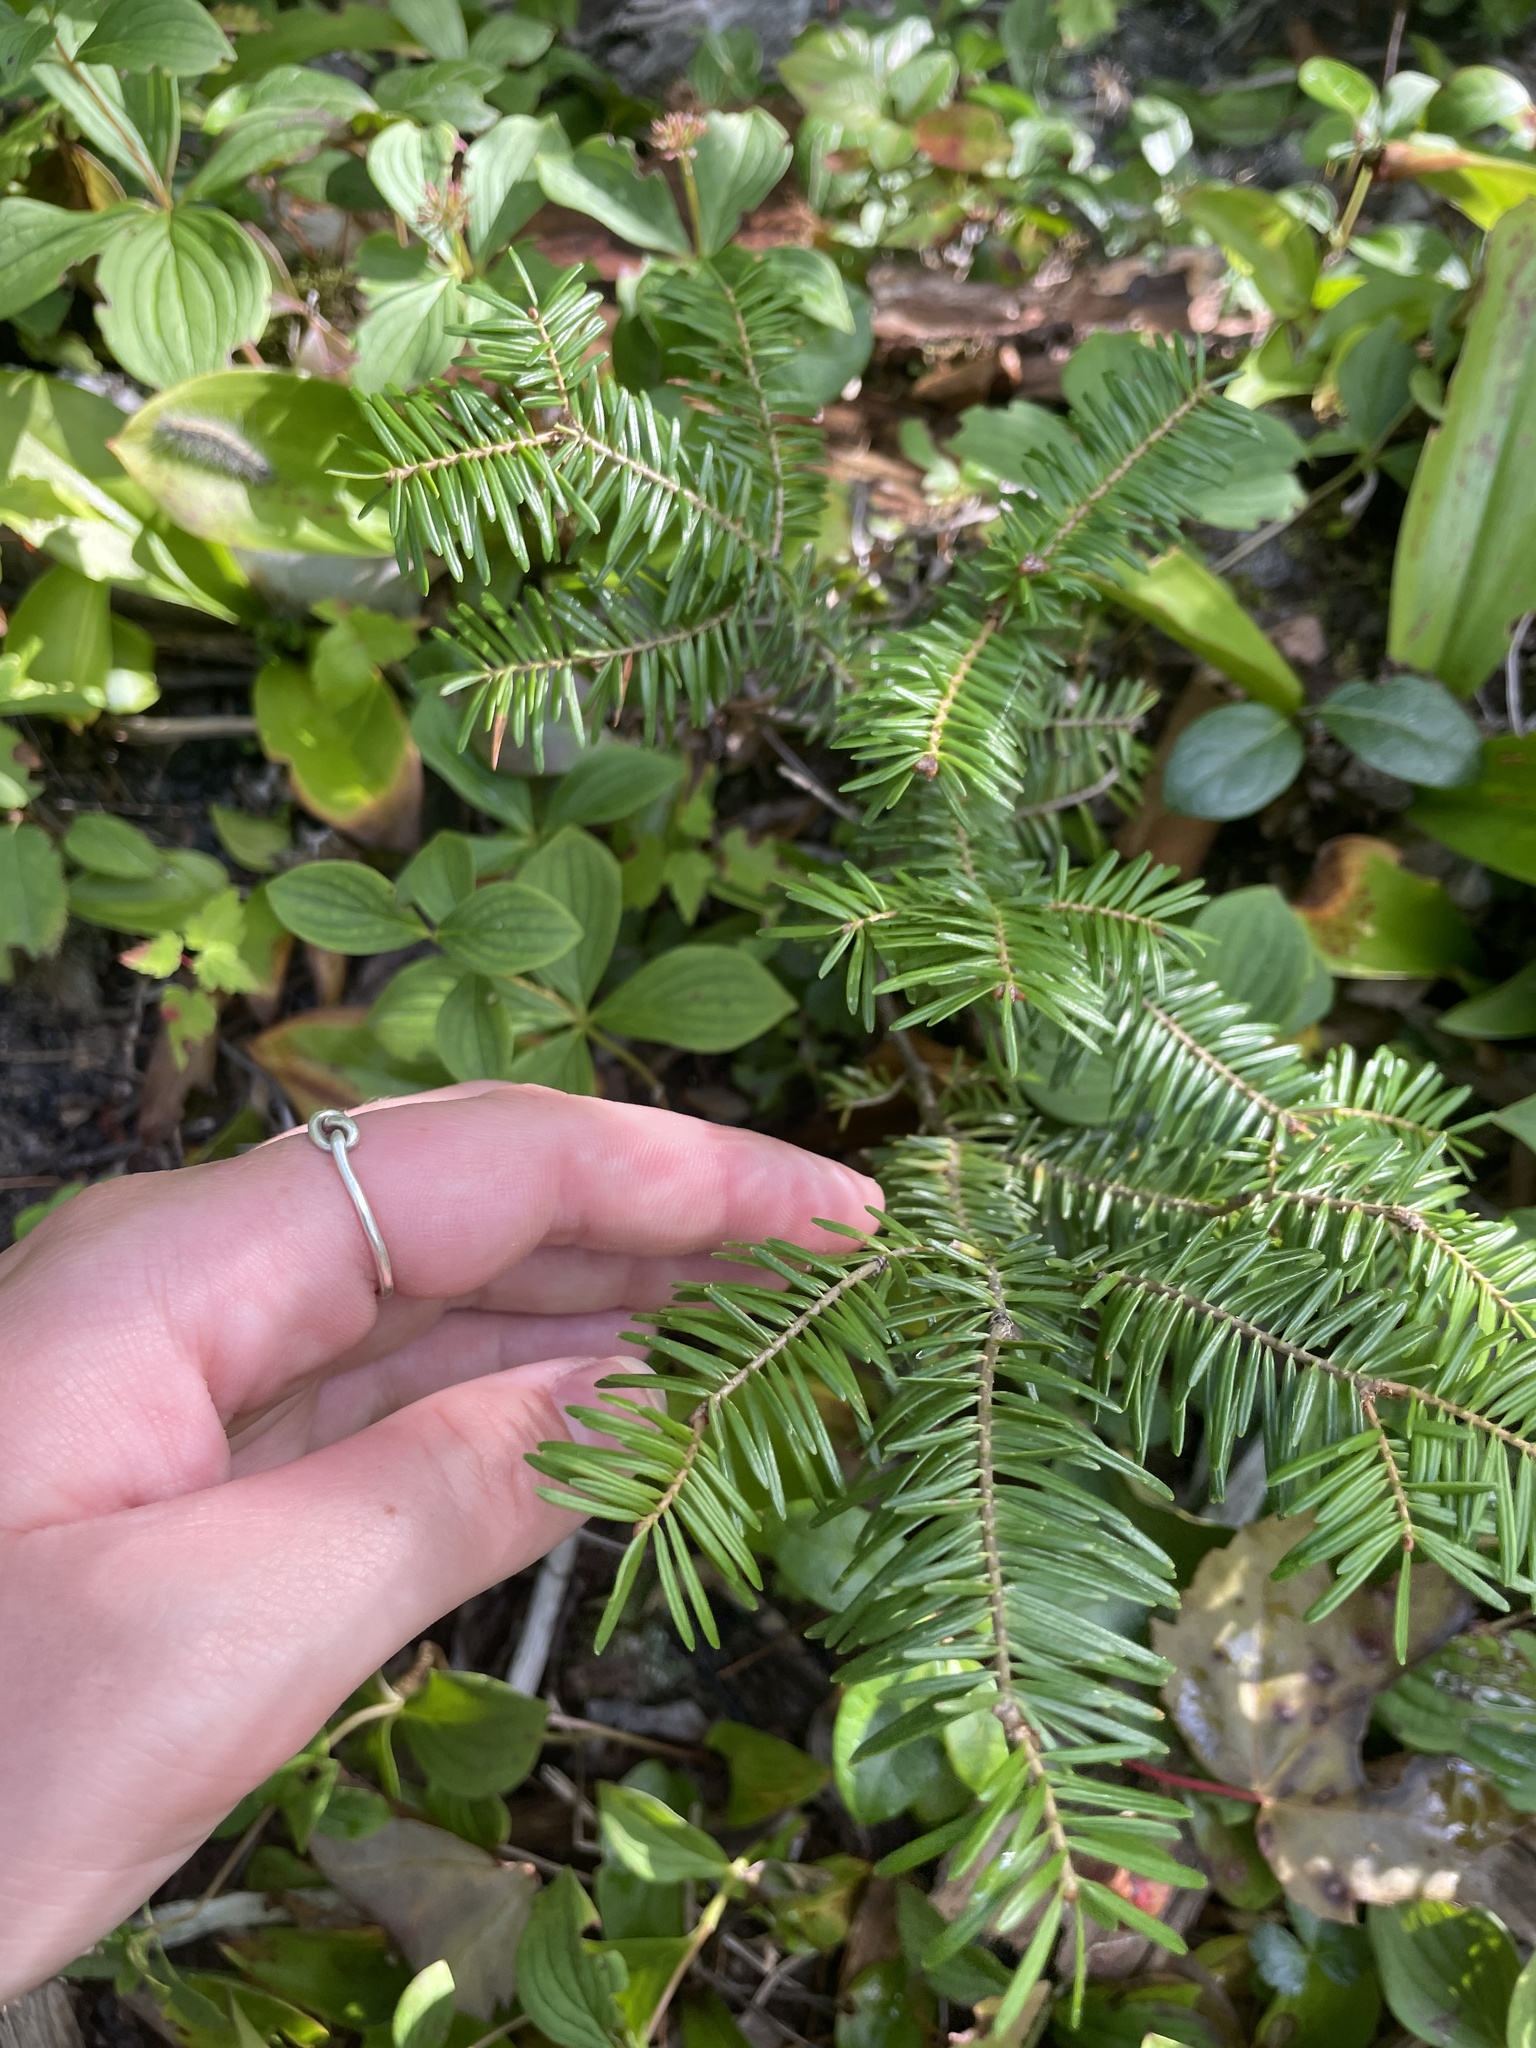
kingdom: Plantae
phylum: Tracheophyta
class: Pinopsida
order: Pinales
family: Pinaceae
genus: Abies
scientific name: Abies balsamea
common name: Balsam fir
